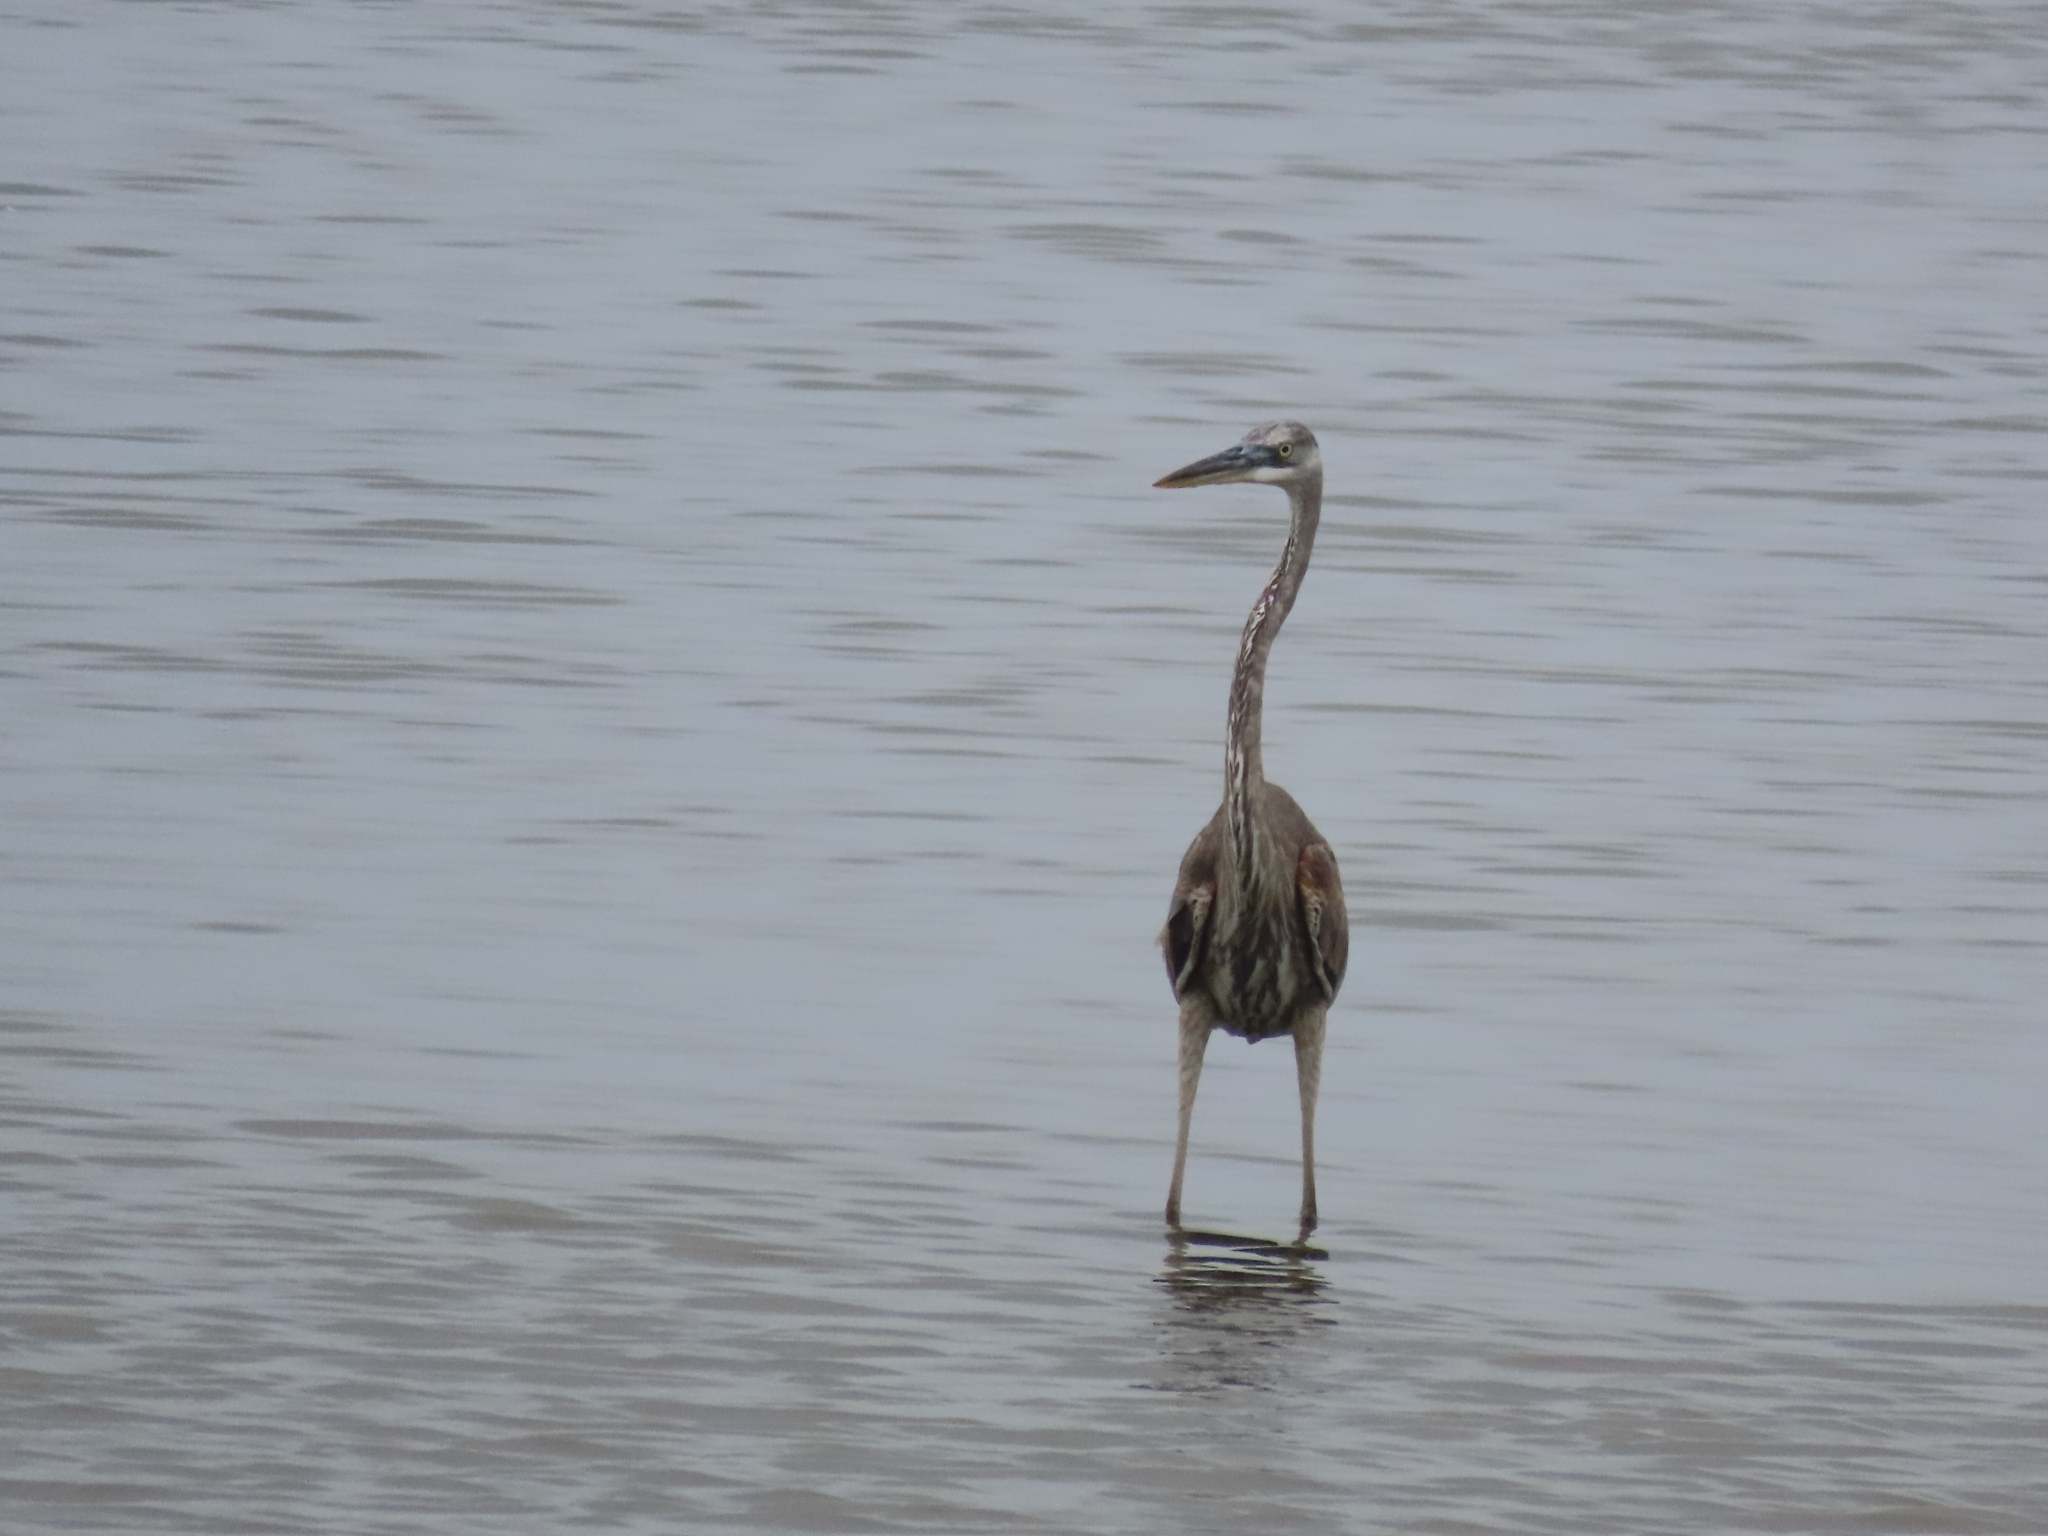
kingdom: Animalia
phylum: Chordata
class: Aves
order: Pelecaniformes
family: Ardeidae
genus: Ardea
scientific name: Ardea herodias
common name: Great blue heron
